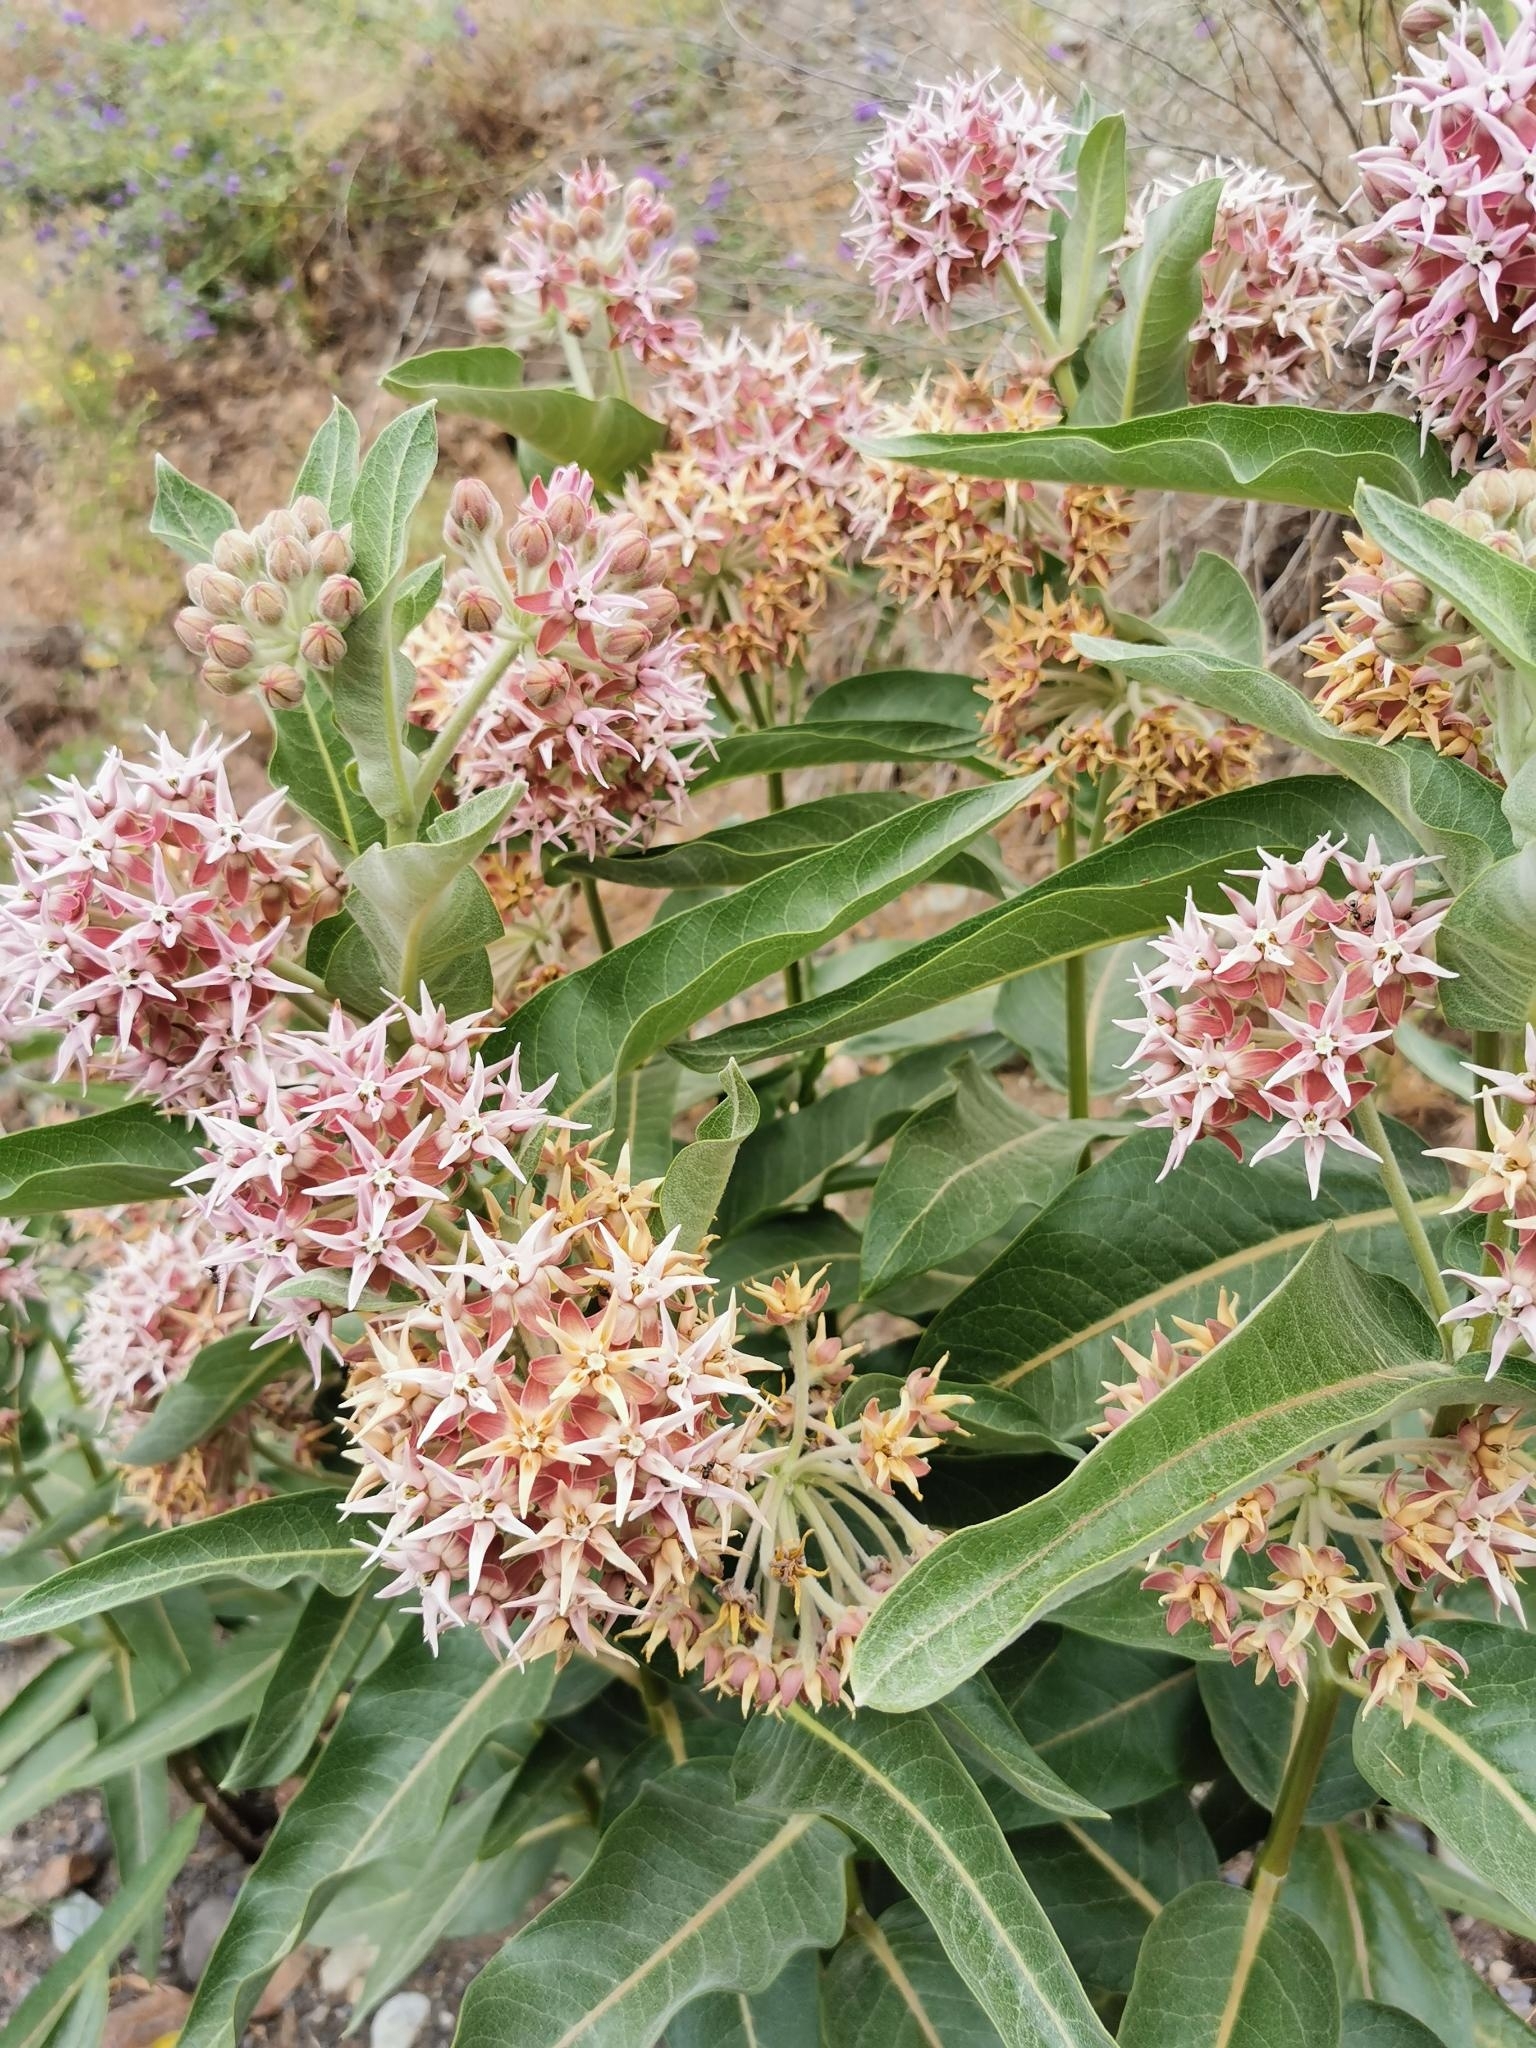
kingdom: Plantae
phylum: Tracheophyta
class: Magnoliopsida
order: Gentianales
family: Apocynaceae
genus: Asclepias
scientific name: Asclepias speciosa
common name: Showy milkweed
